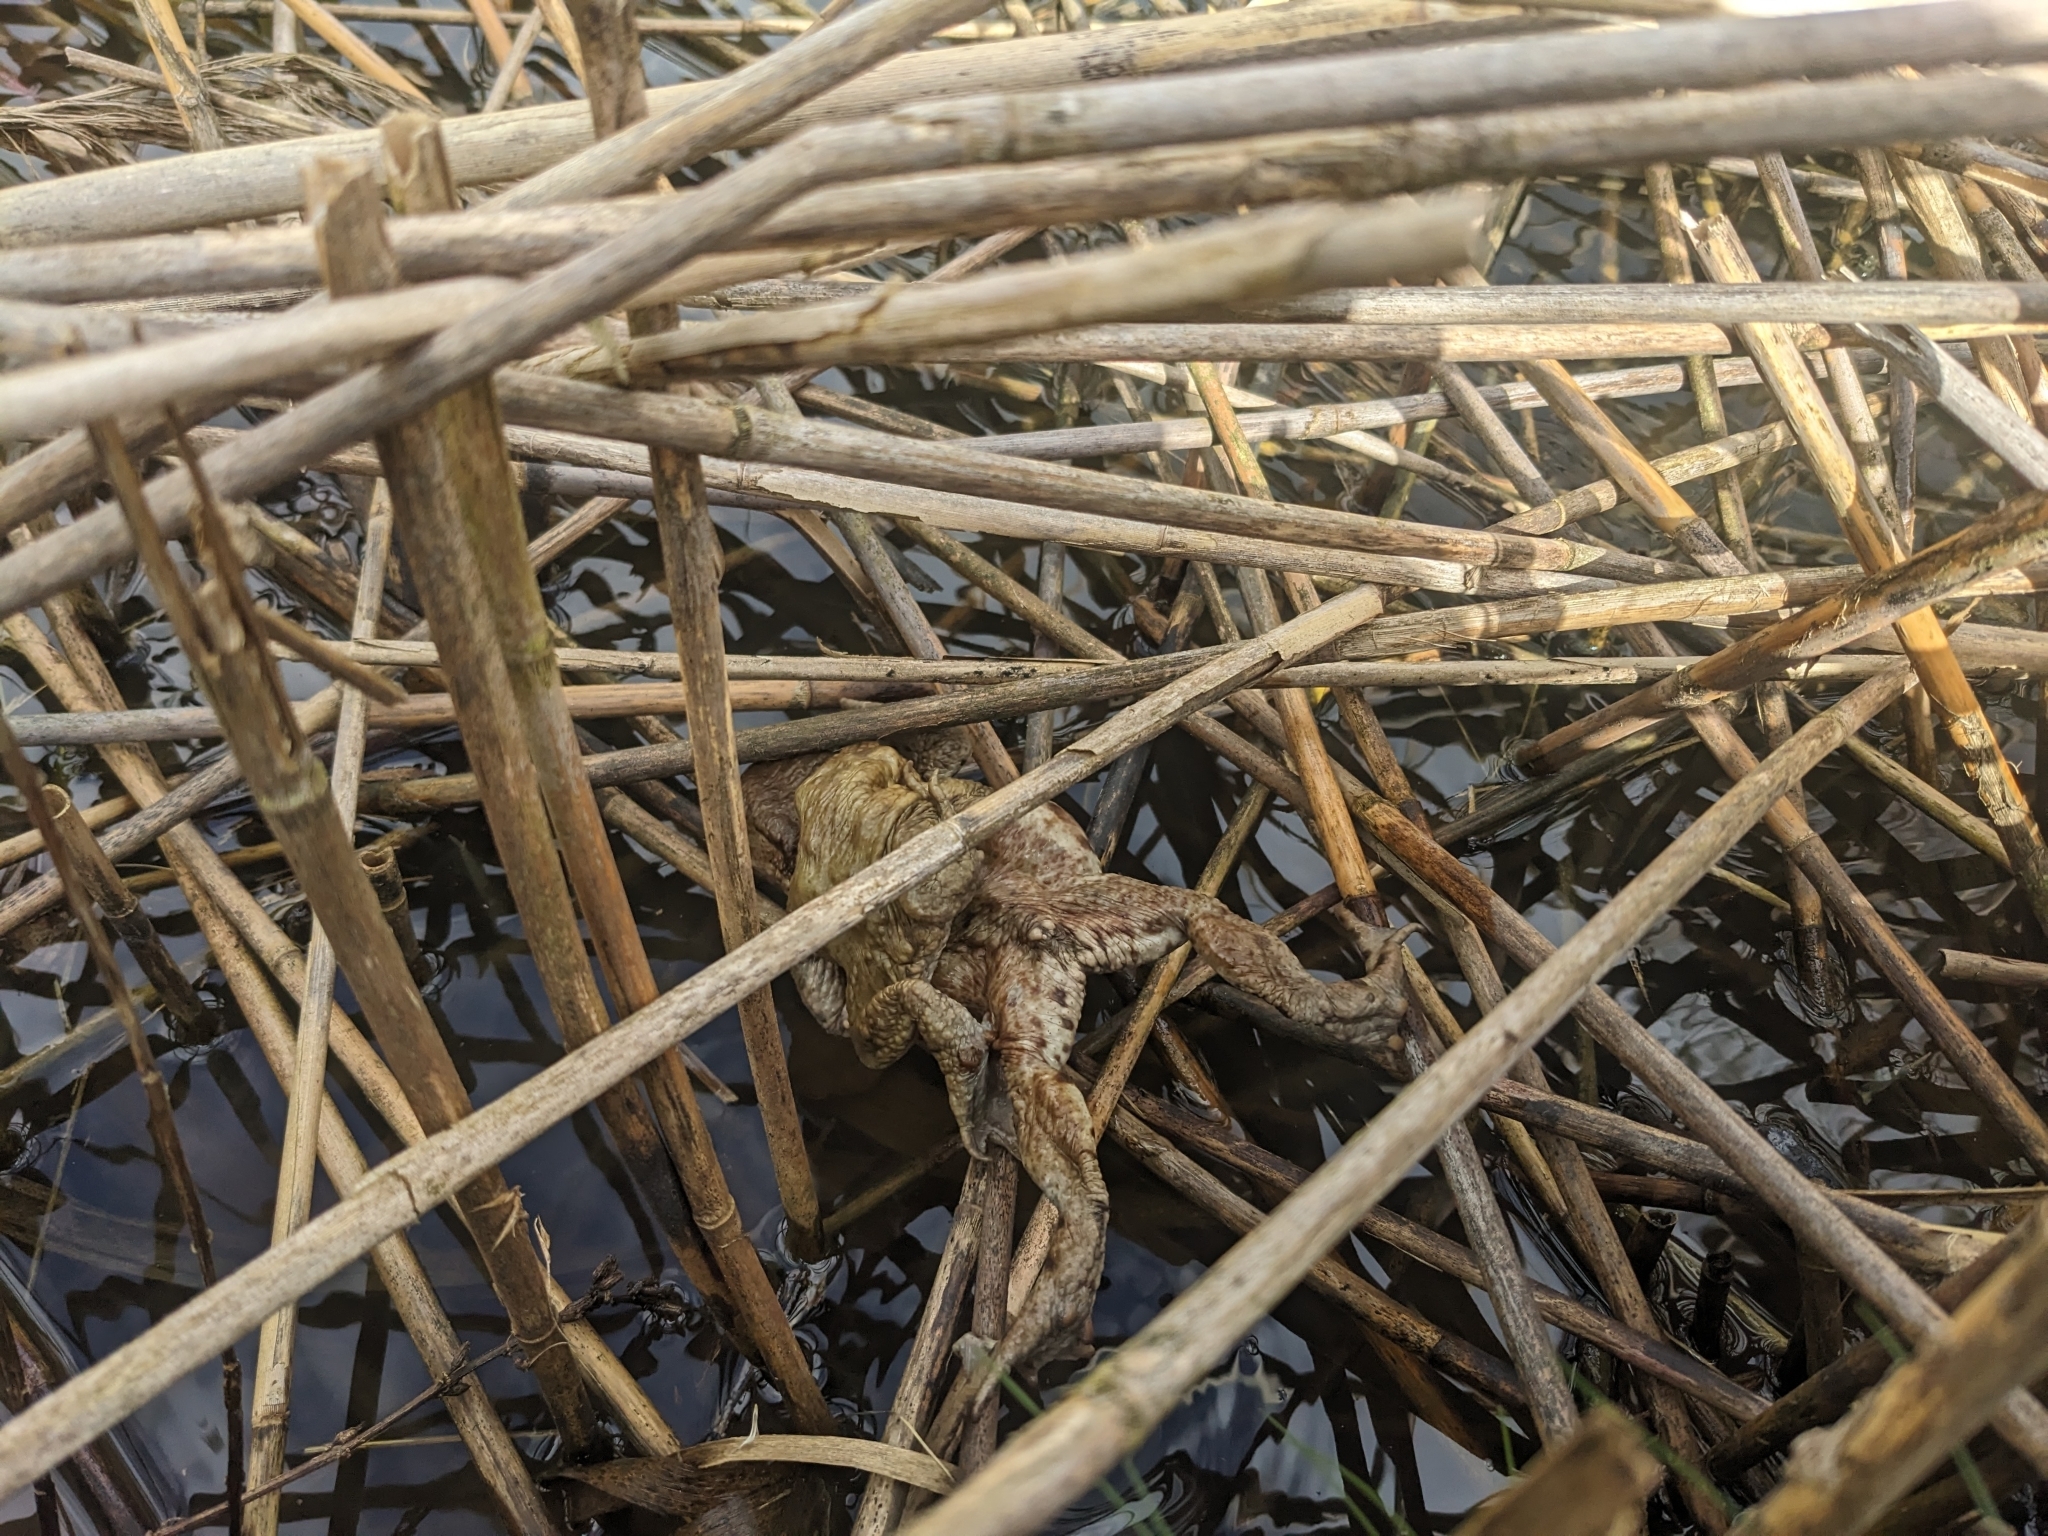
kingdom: Animalia
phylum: Chordata
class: Amphibia
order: Anura
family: Bufonidae
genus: Bufo
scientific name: Bufo bufo
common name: Common toad
